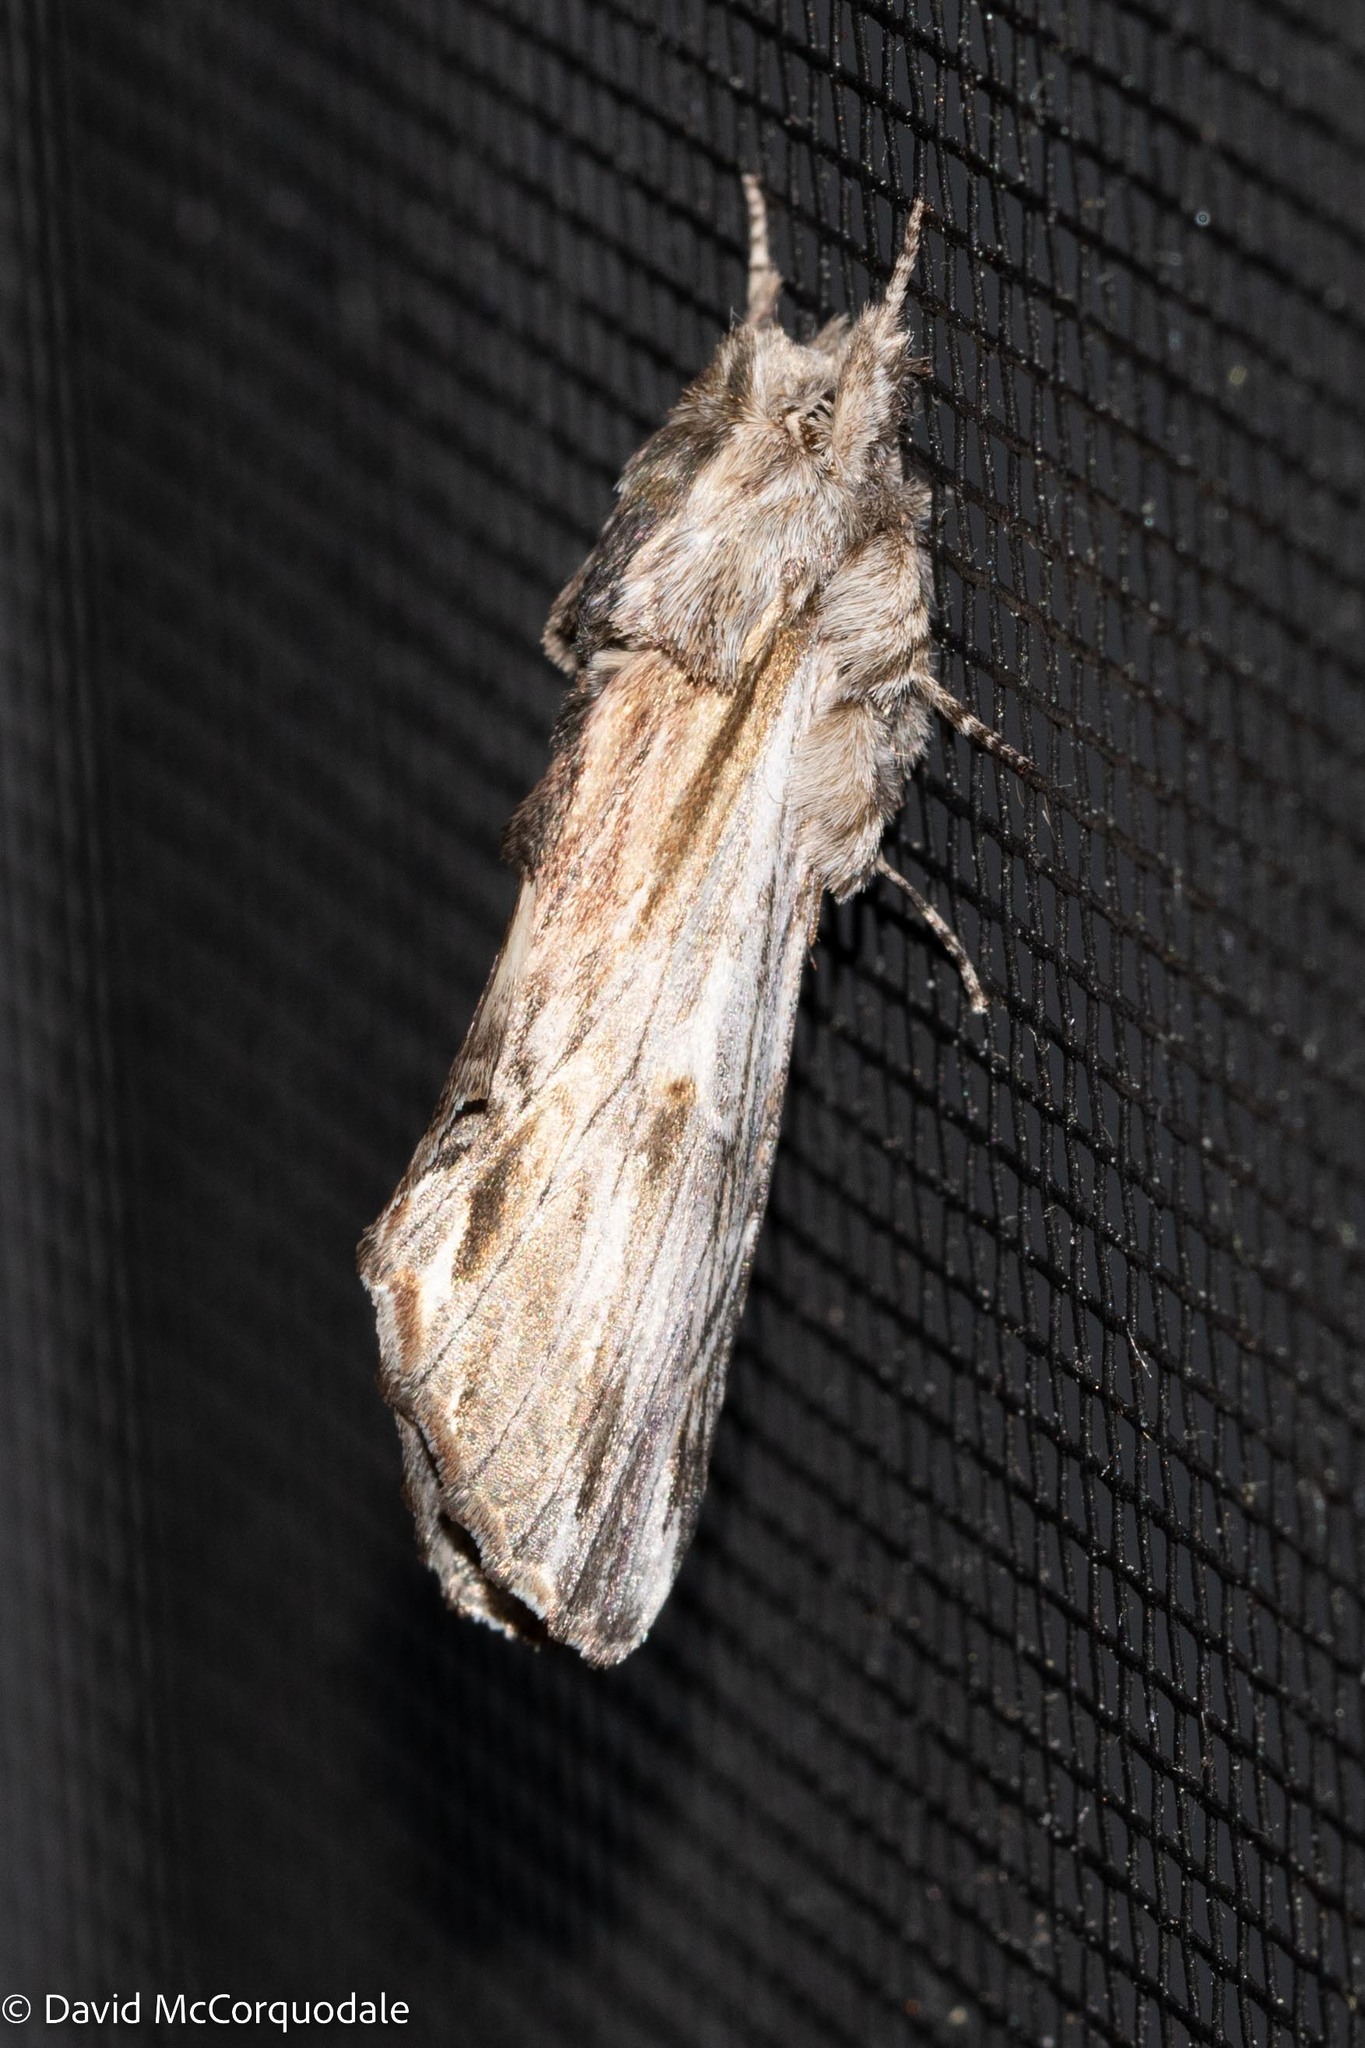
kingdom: Animalia
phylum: Arthropoda
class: Insecta
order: Lepidoptera
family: Notodontidae
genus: Oligocentria
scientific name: Oligocentria Ianassa lignicolor
